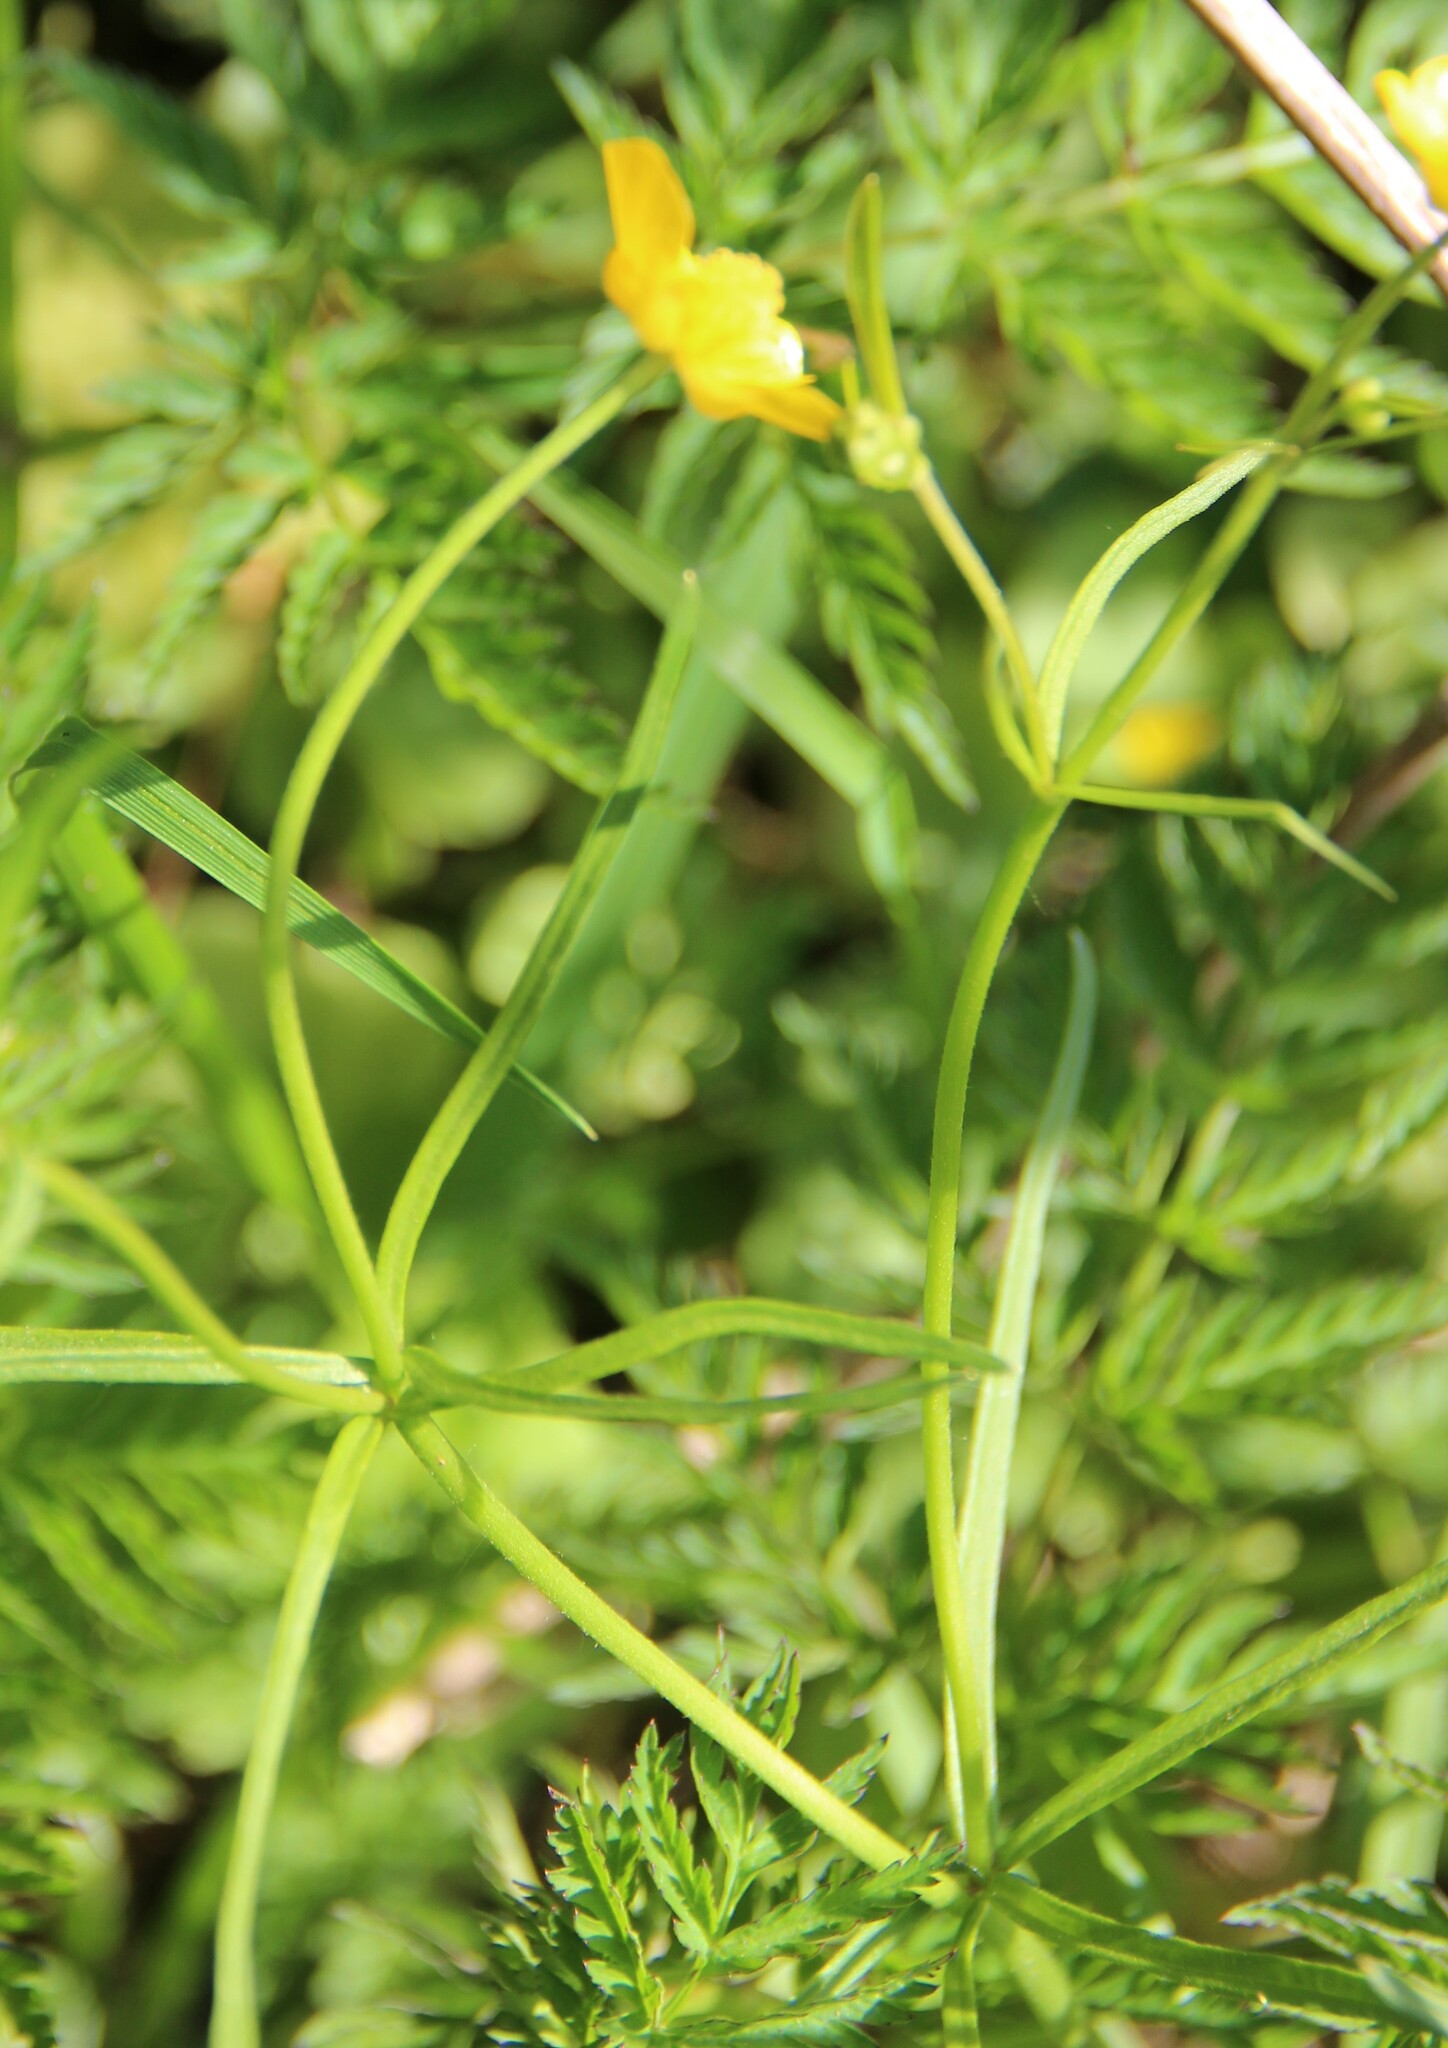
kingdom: Plantae
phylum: Tracheophyta
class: Magnoliopsida
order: Ranunculales
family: Ranunculaceae
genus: Ranunculus
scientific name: Ranunculus auricomus
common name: Goldilocks buttercup
